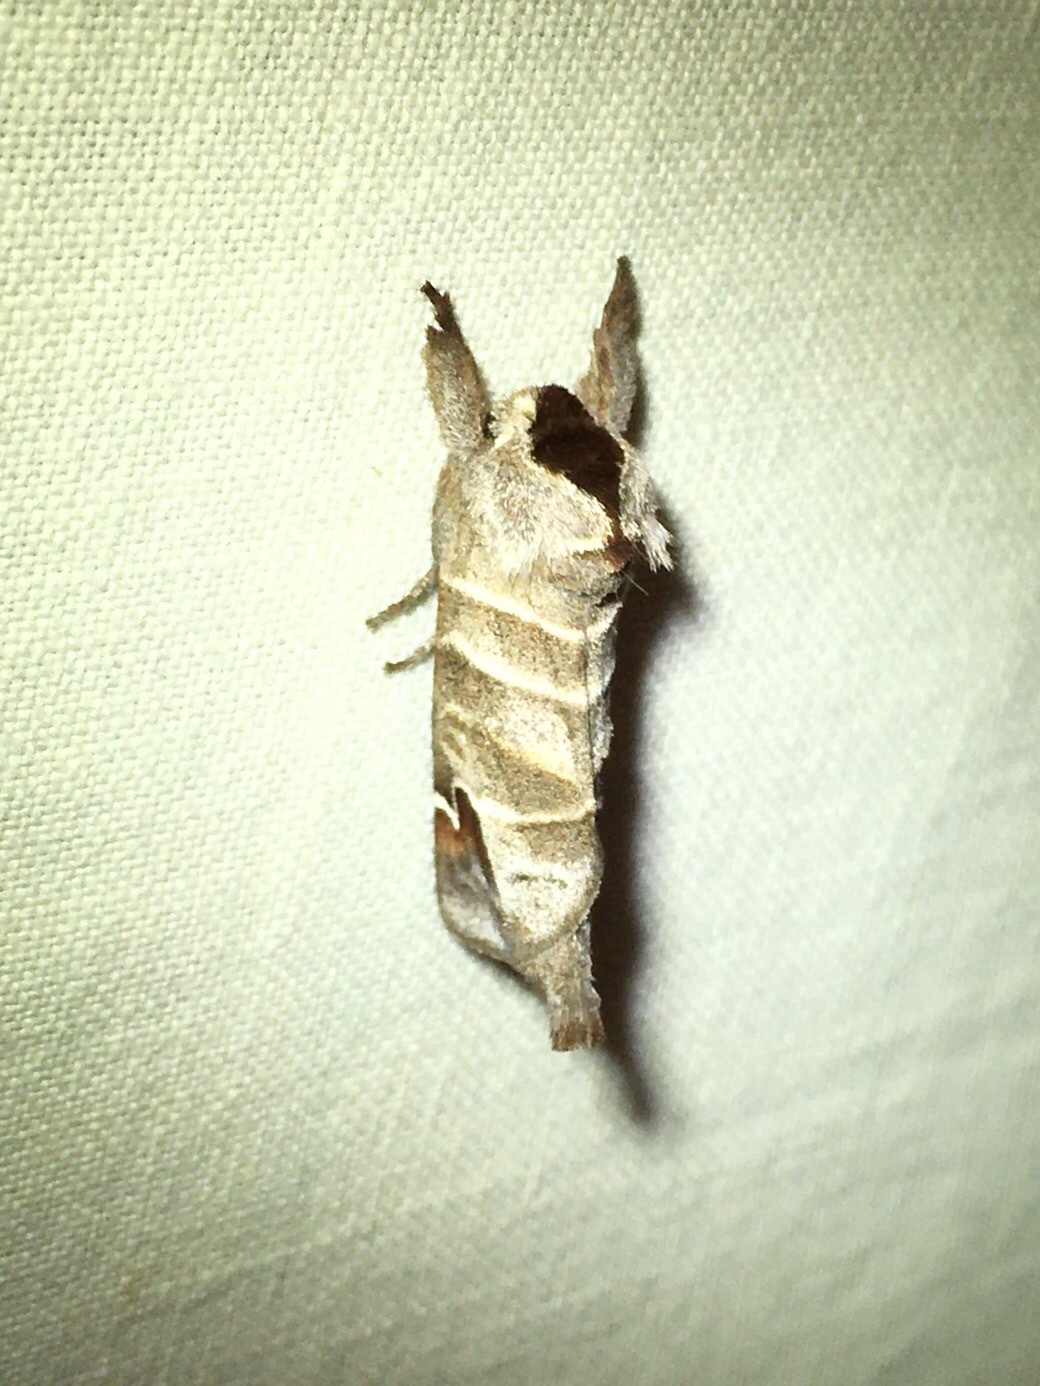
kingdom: Animalia
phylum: Arthropoda
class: Insecta
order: Lepidoptera
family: Notodontidae
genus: Clostera
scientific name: Clostera albosigma
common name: Sigmoid prominent
